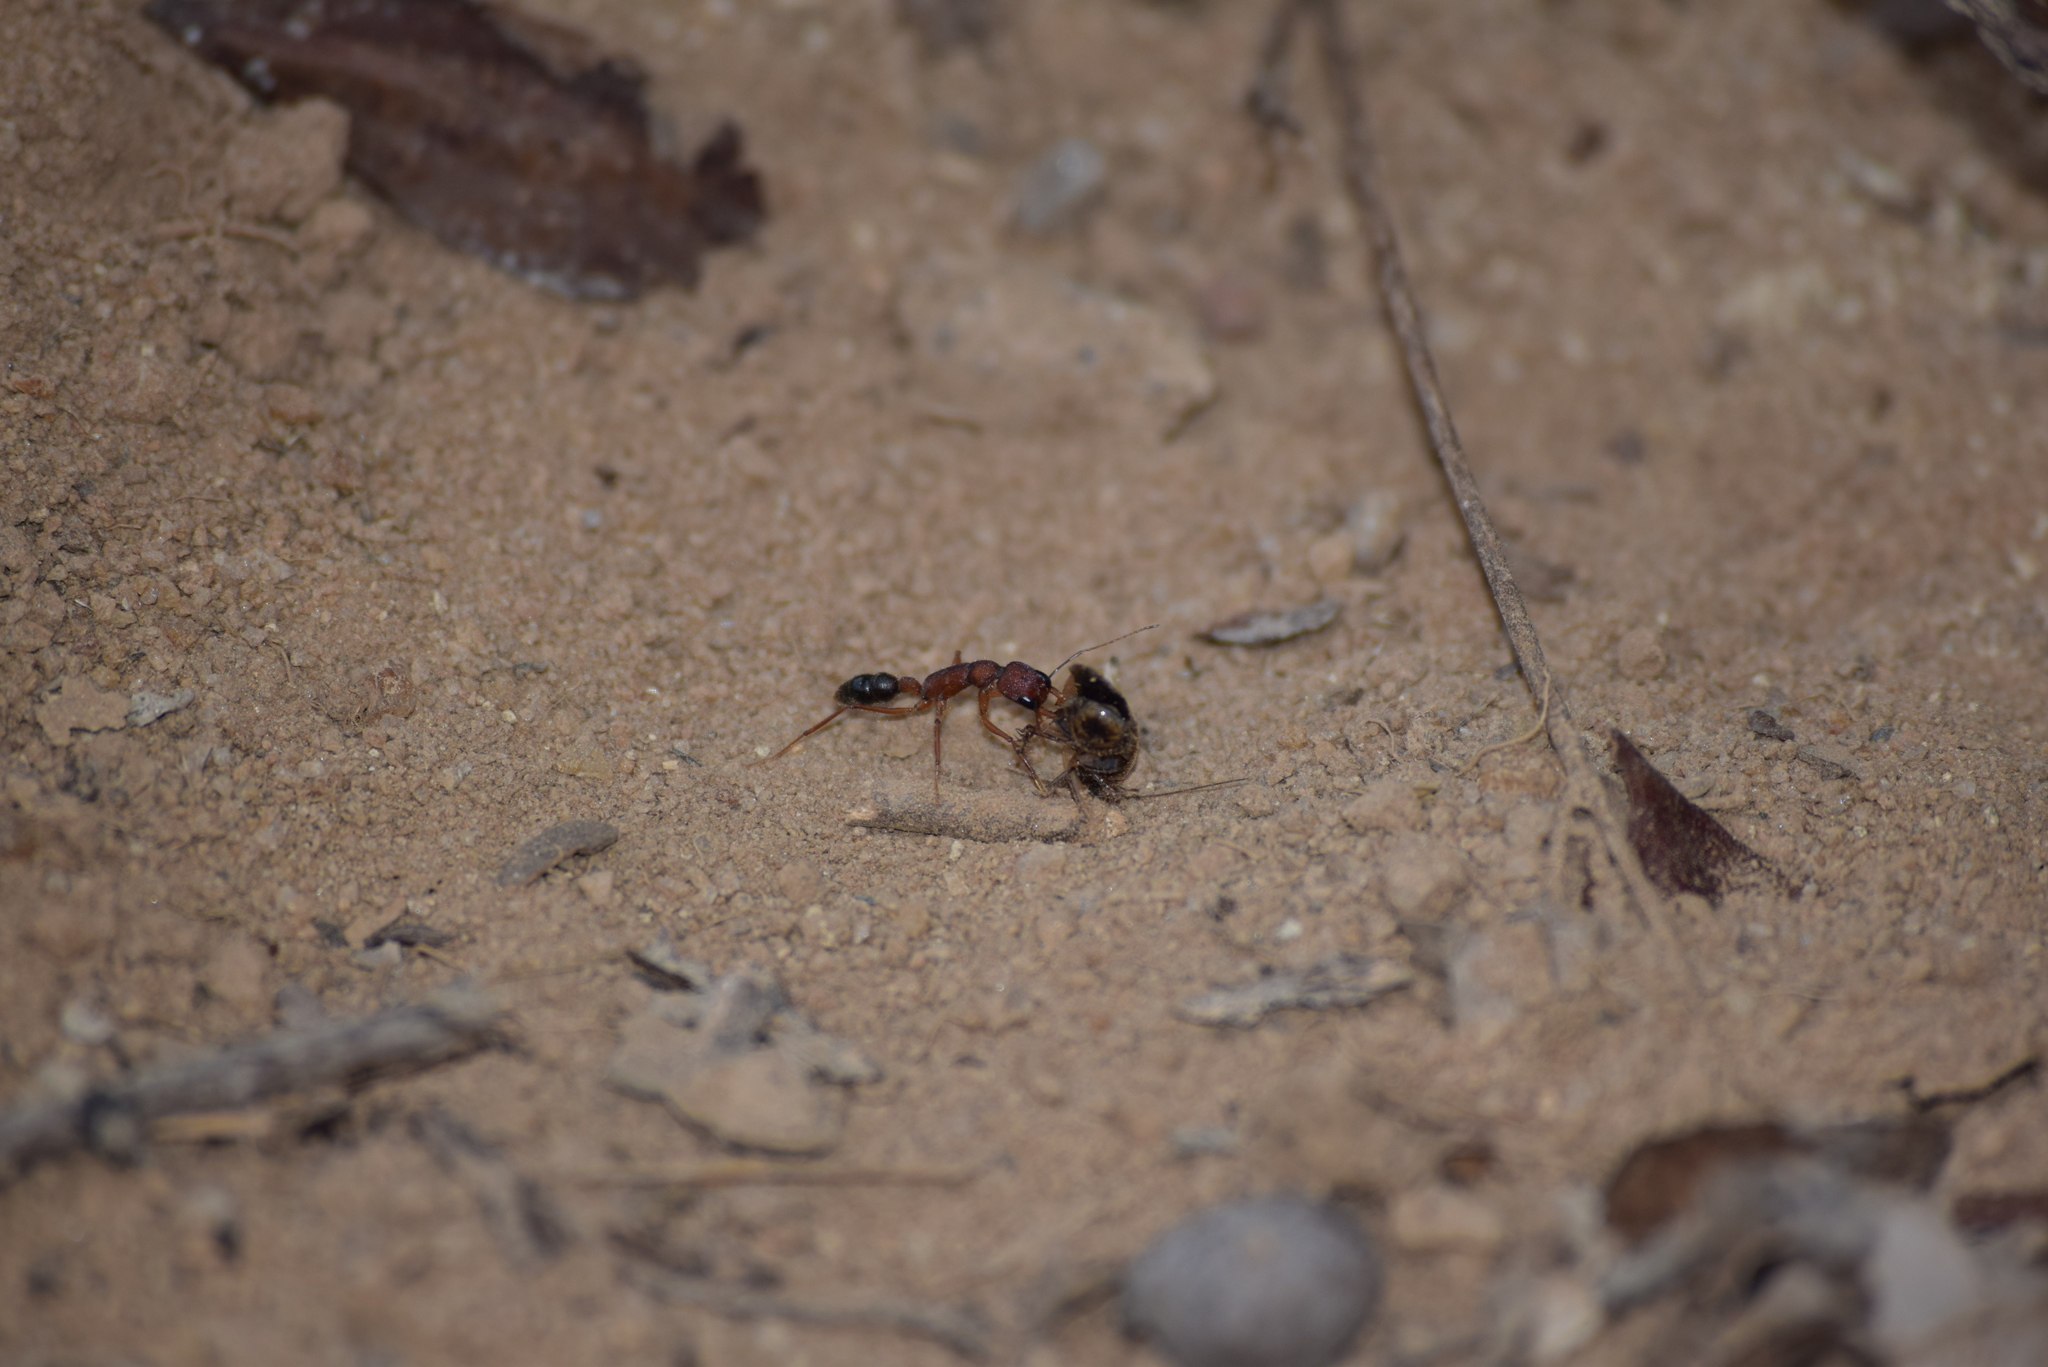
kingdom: Animalia
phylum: Arthropoda
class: Insecta
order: Hymenoptera
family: Formicidae
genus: Harpegnathos
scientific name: Harpegnathos saltator
